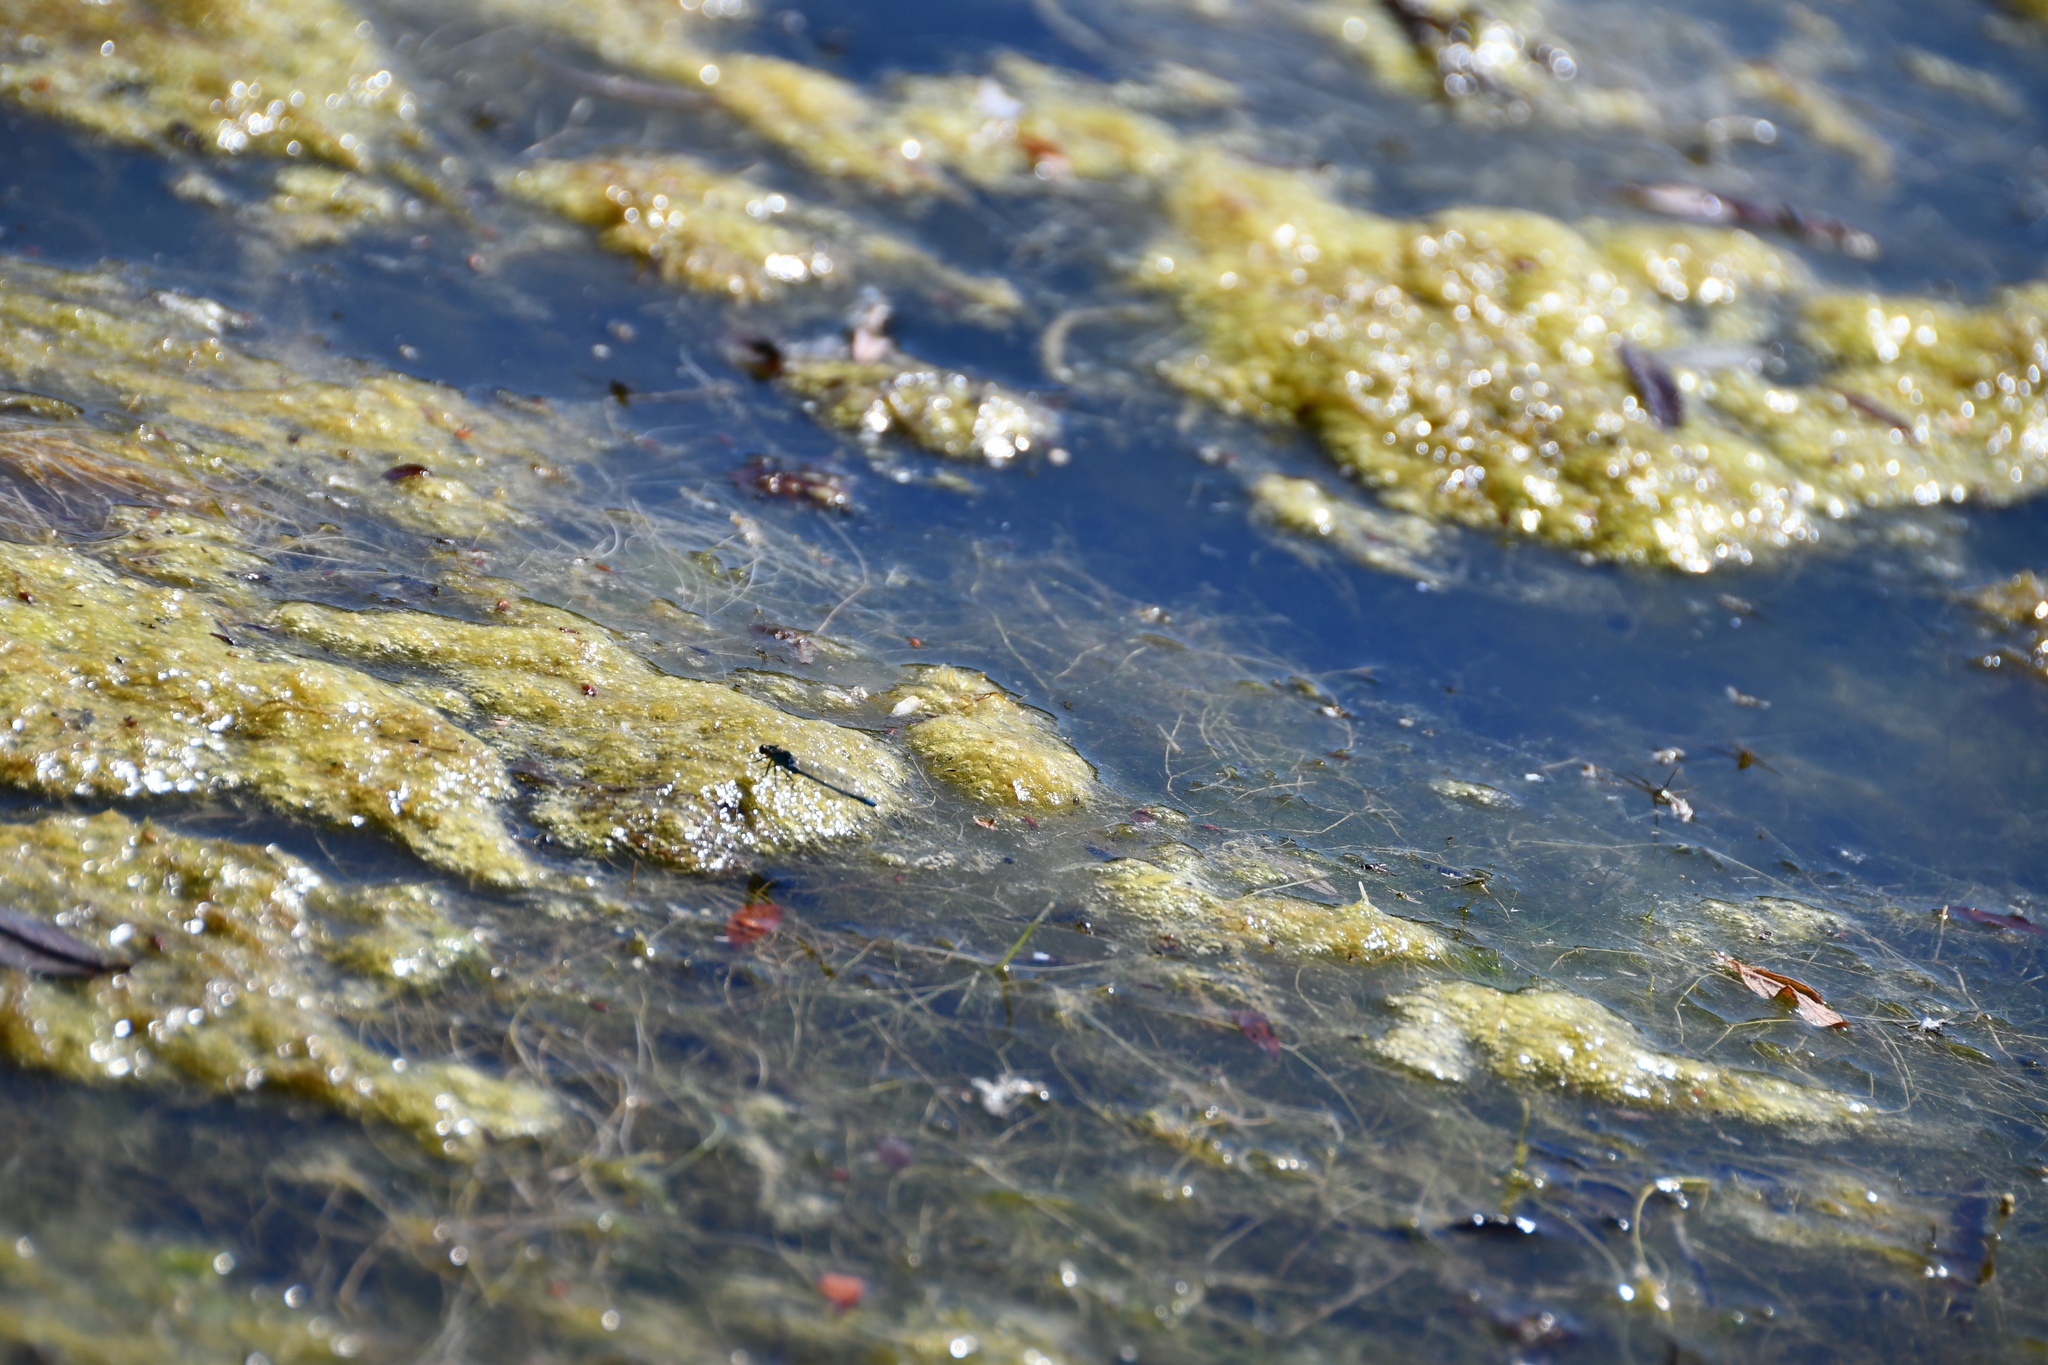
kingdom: Animalia
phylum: Arthropoda
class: Insecta
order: Odonata
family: Coenagrionidae
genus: Erythromma
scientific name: Erythromma najas
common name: Red-eyed damselfly
